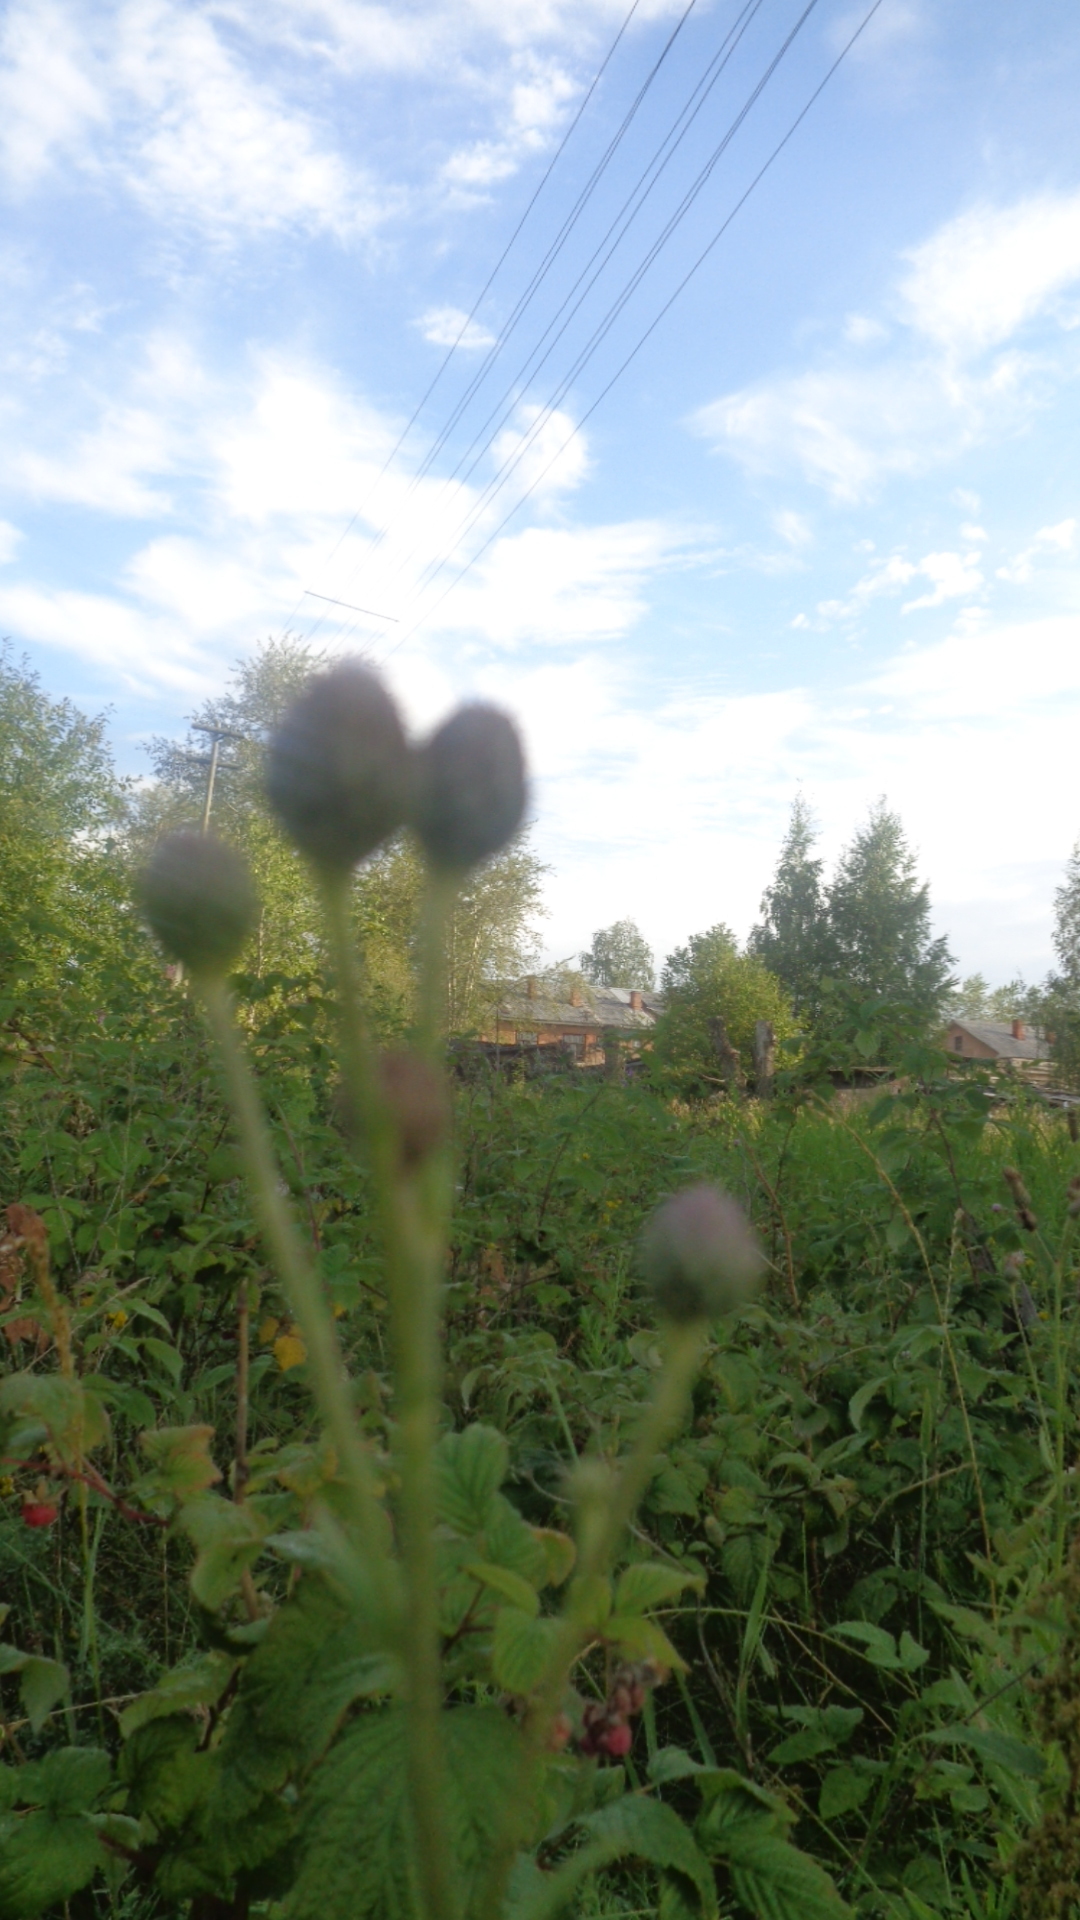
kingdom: Plantae
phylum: Tracheophyta
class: Magnoliopsida
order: Asterales
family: Asteraceae
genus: Cirsium
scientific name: Cirsium arvense
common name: Creeping thistle
